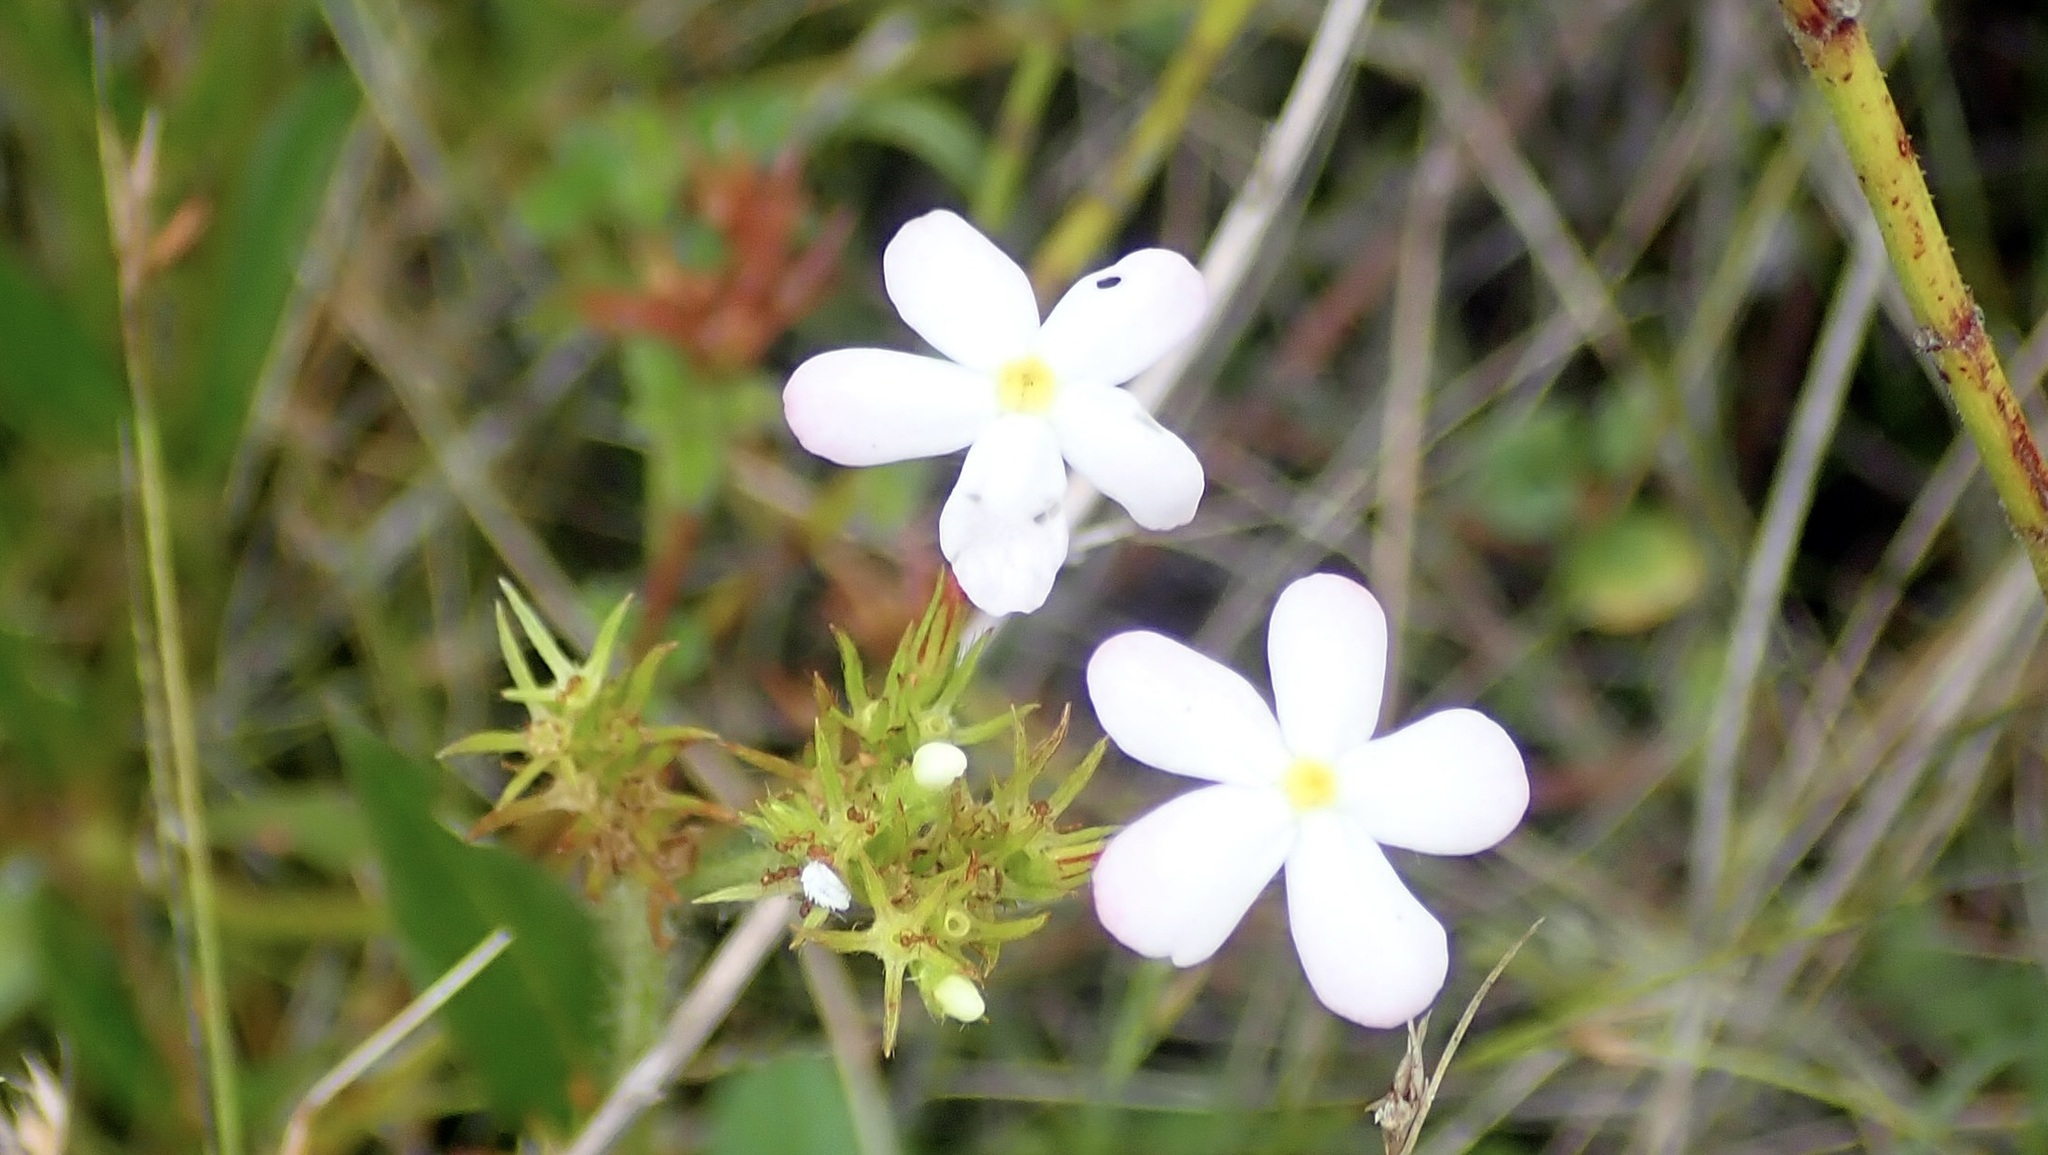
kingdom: Plantae
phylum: Tracheophyta
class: Magnoliopsida
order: Gentianales
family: Rubiaceae
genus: Sipanea
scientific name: Sipanea pratensis
